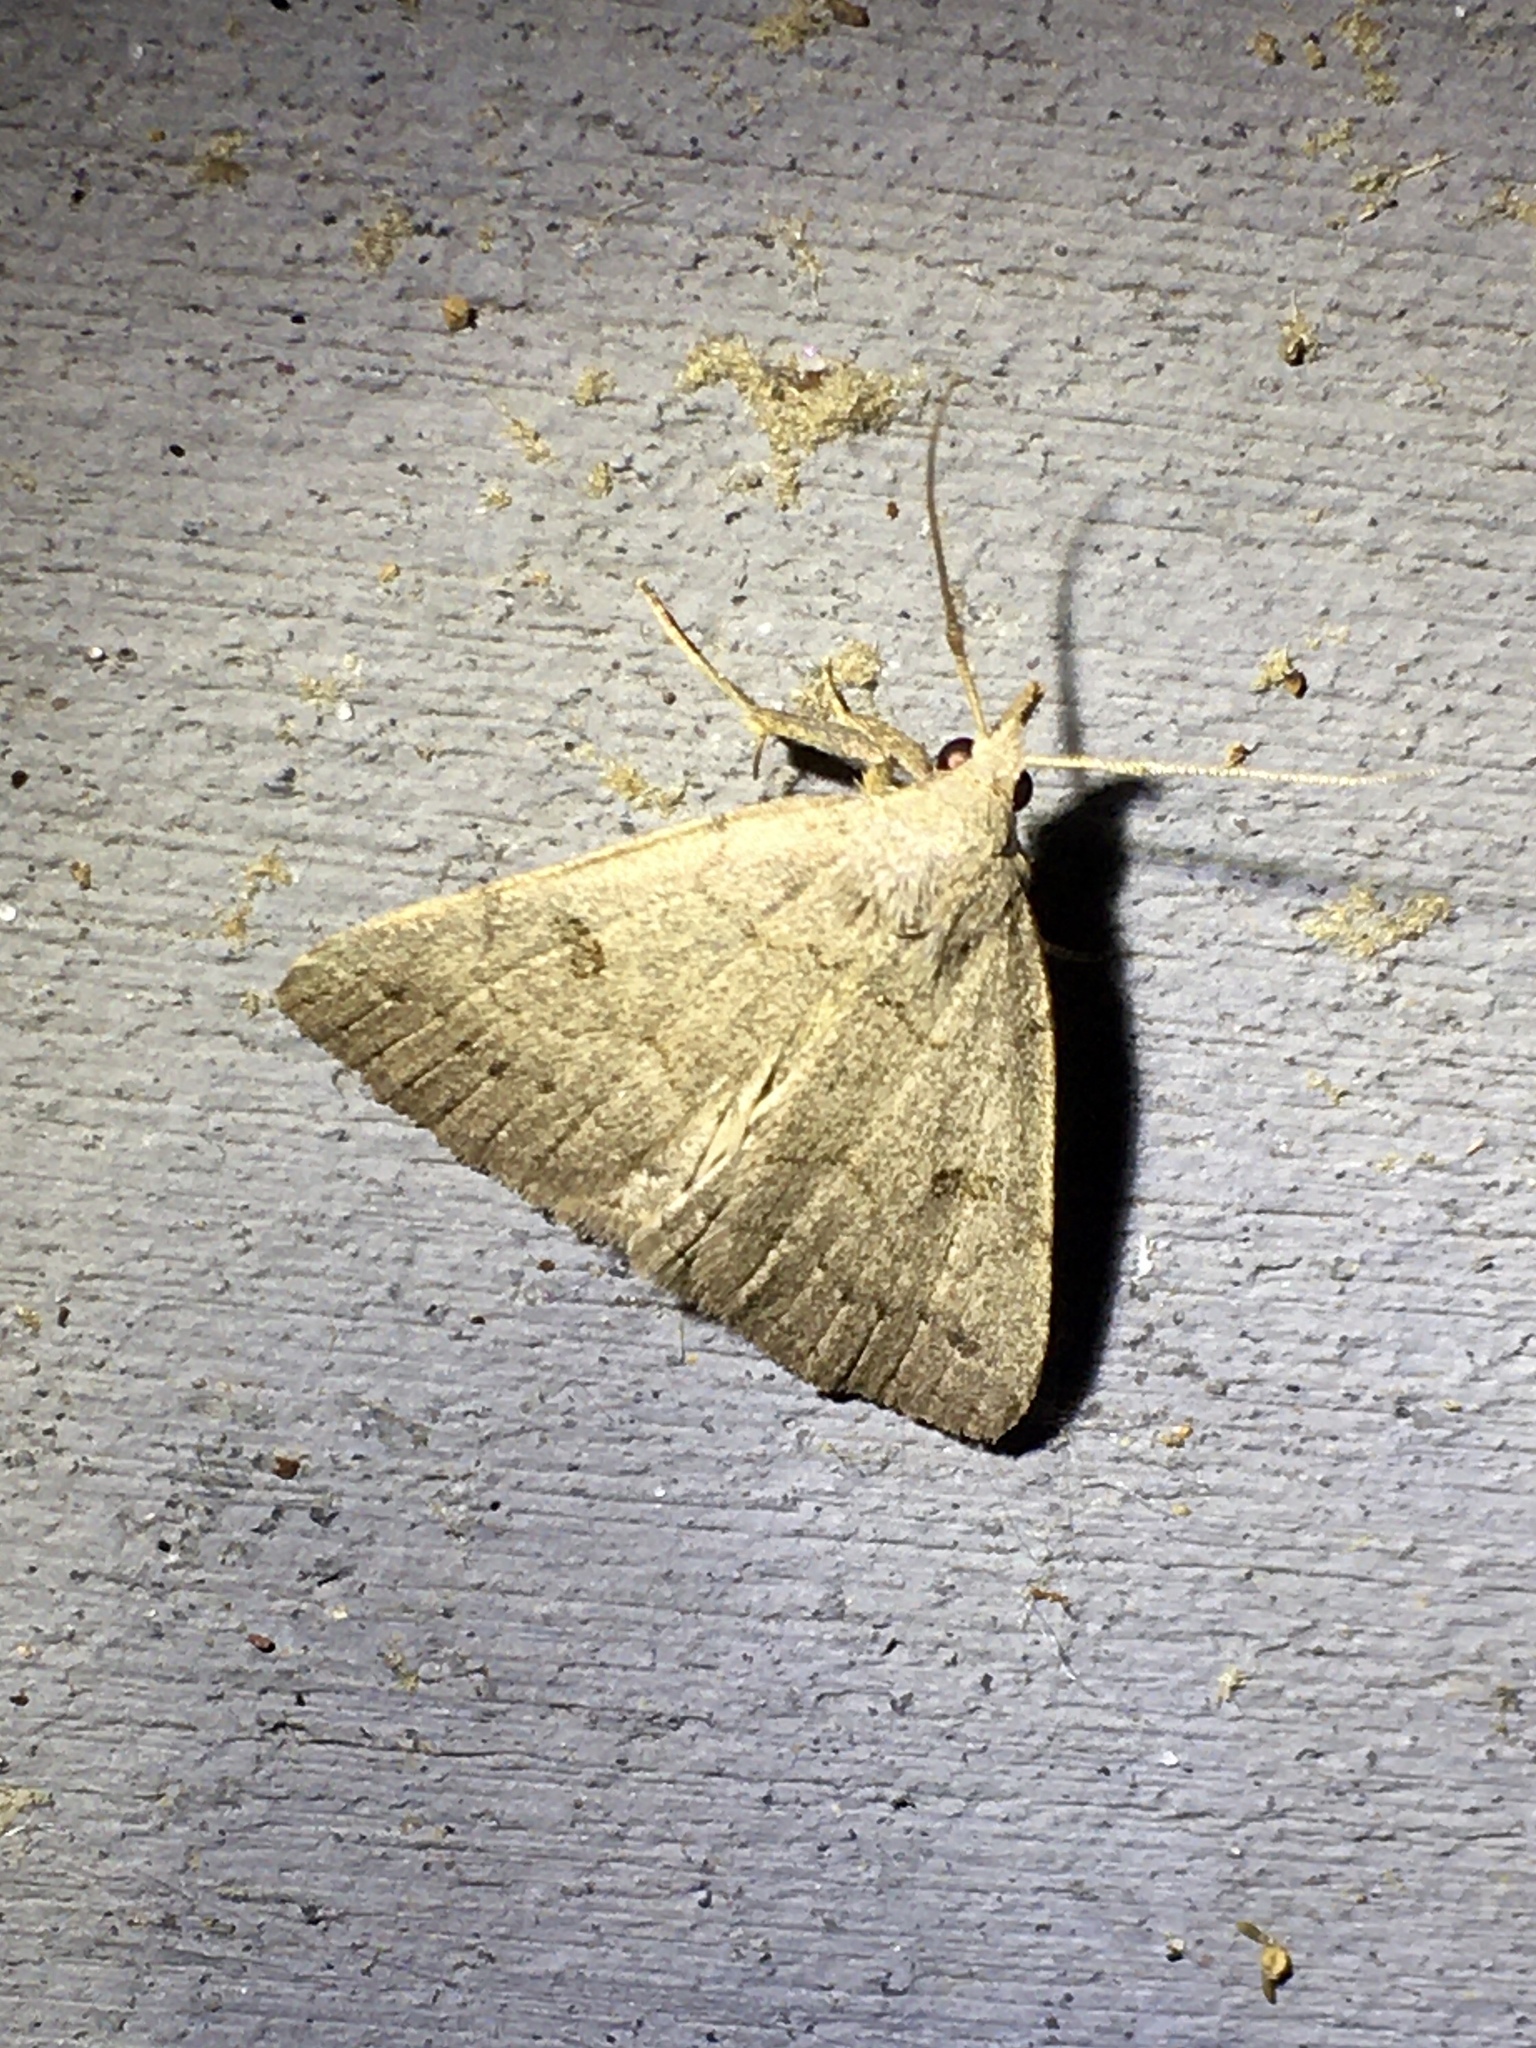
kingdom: Animalia
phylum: Arthropoda
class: Insecta
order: Lepidoptera
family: Erebidae
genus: Macrochilo
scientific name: Macrochilo morbidalis
